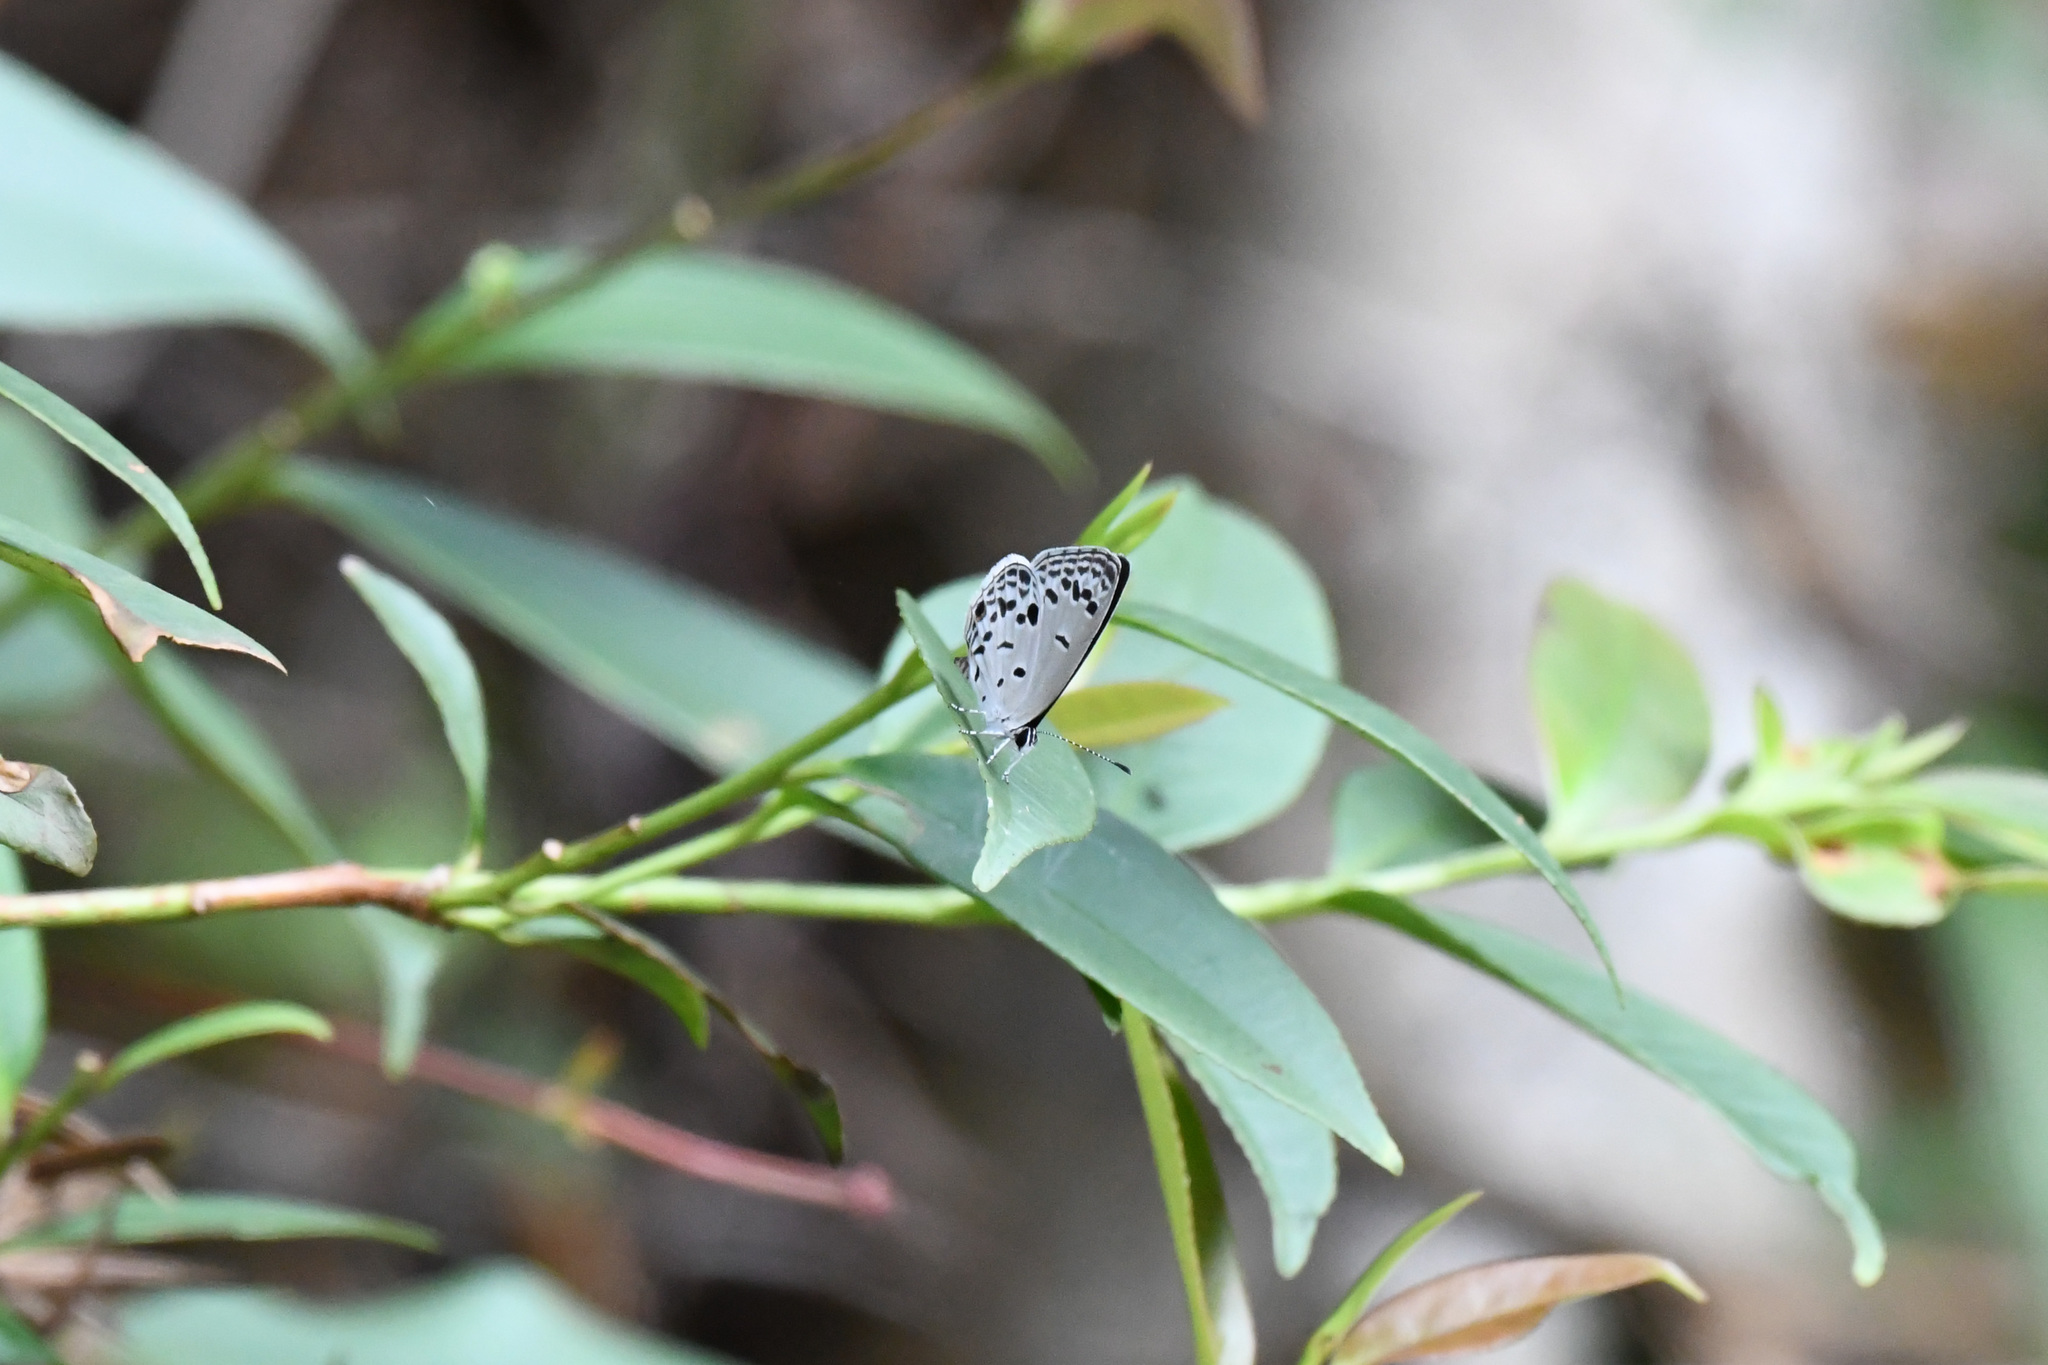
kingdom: Animalia
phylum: Arthropoda
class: Insecta
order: Lepidoptera
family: Lycaenidae
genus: Pseudozizeeria
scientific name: Pseudozizeeria maha
